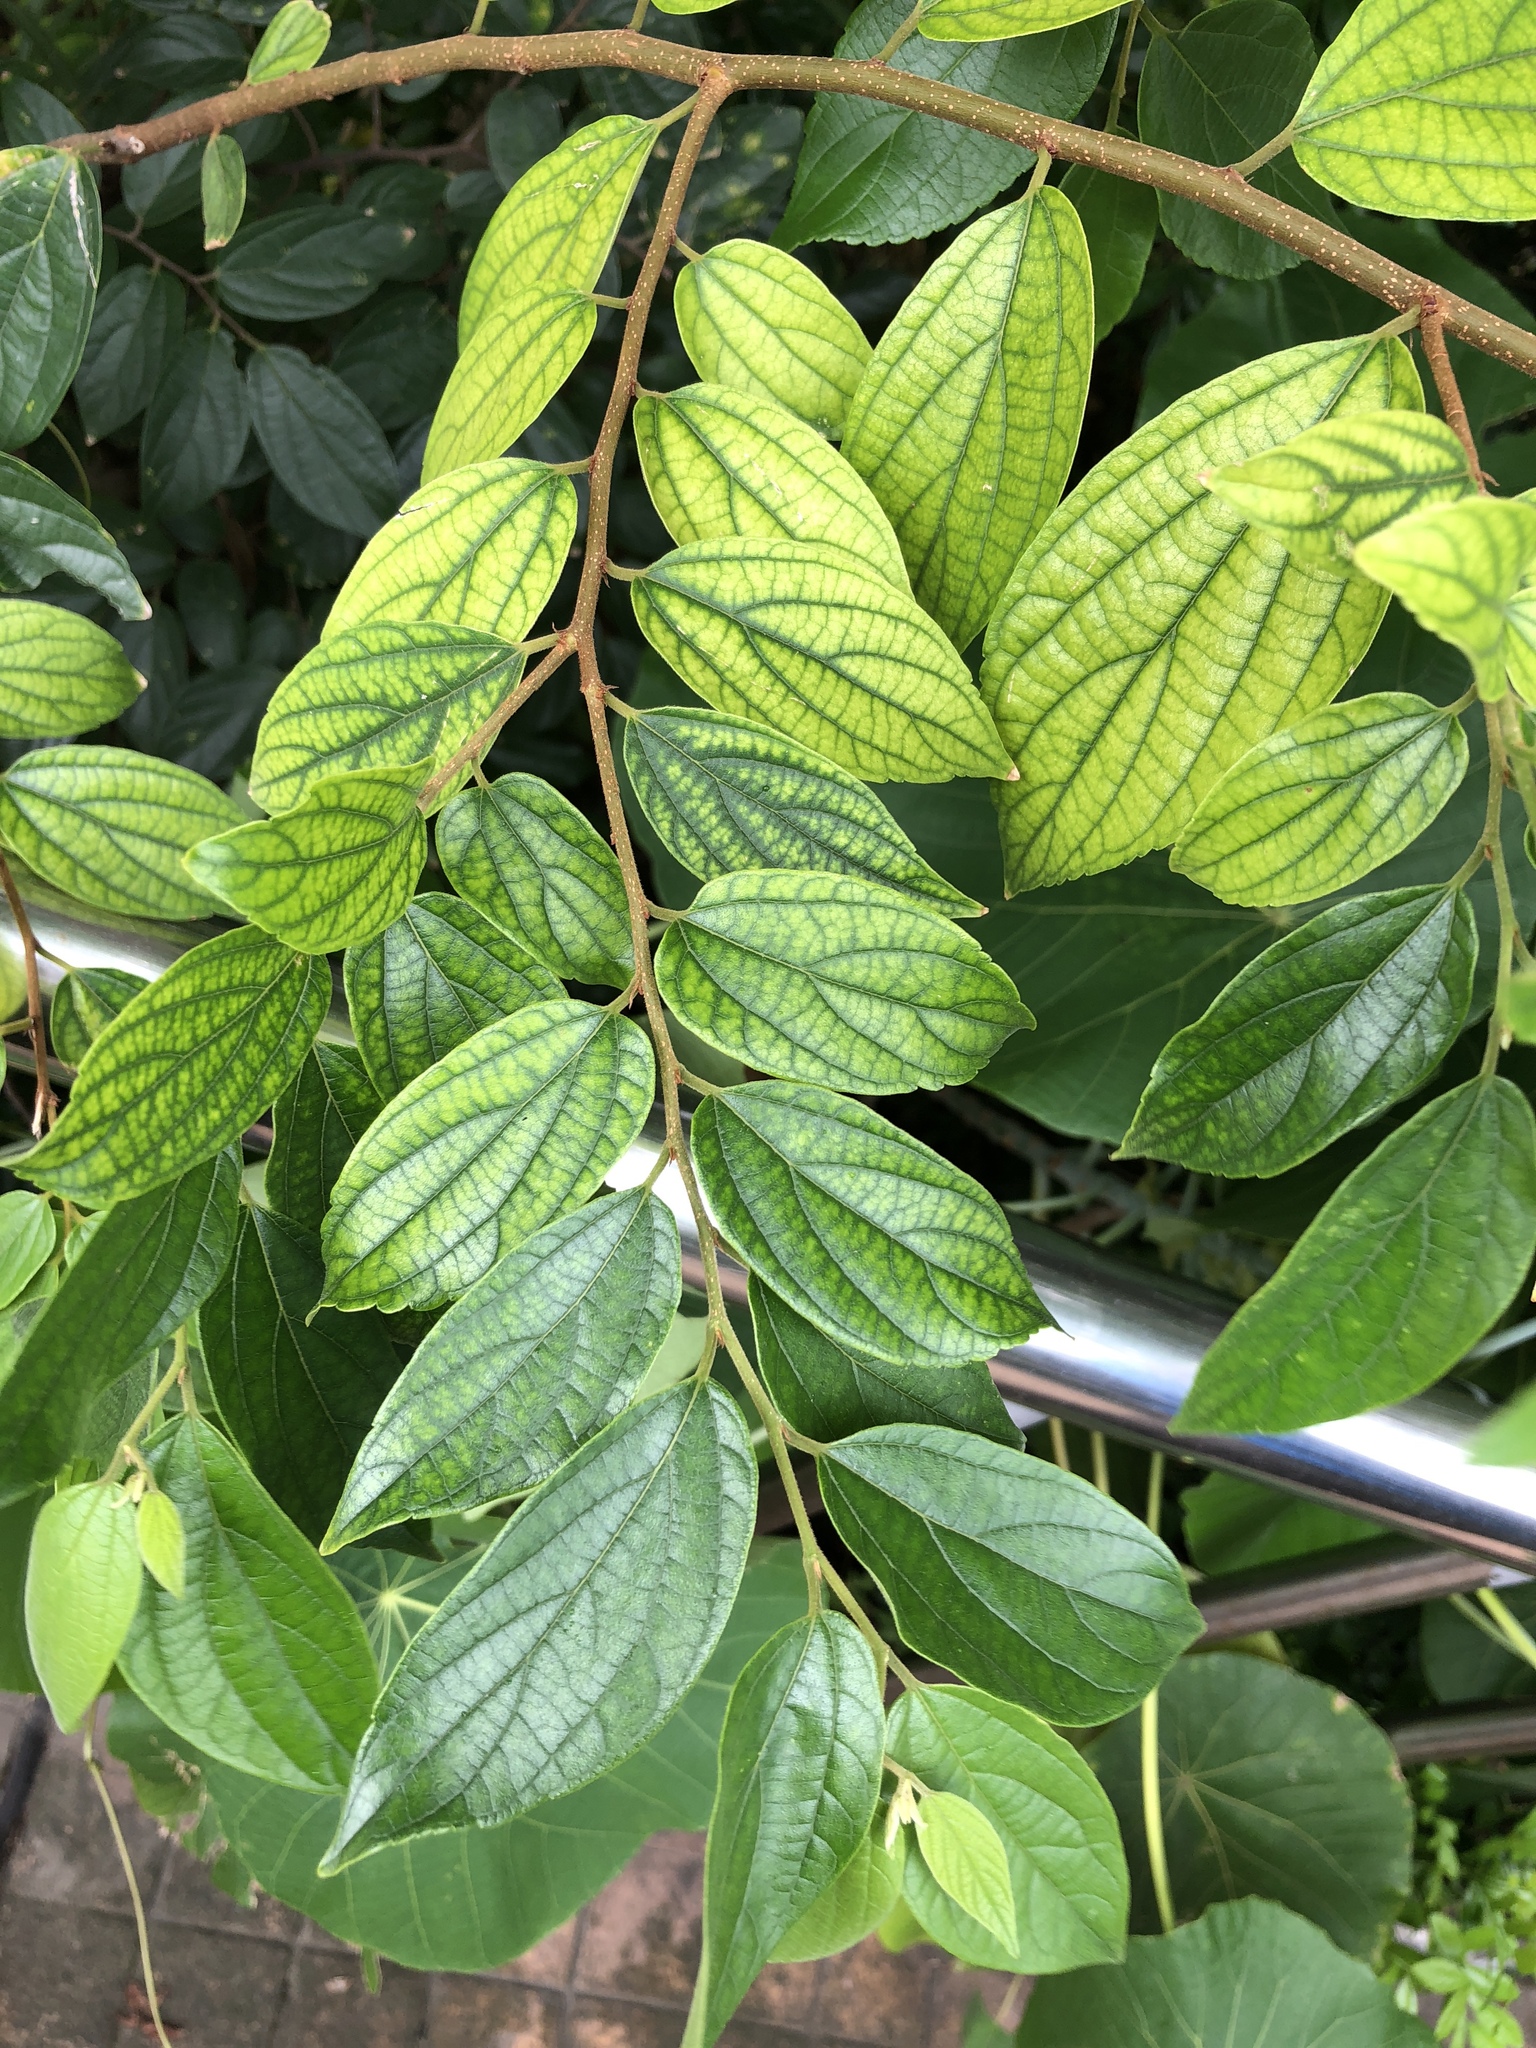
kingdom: Plantae
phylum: Tracheophyta
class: Magnoliopsida
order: Rosales
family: Cannabaceae
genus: Celtis
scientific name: Celtis sinensis
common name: Chinese hackberry
